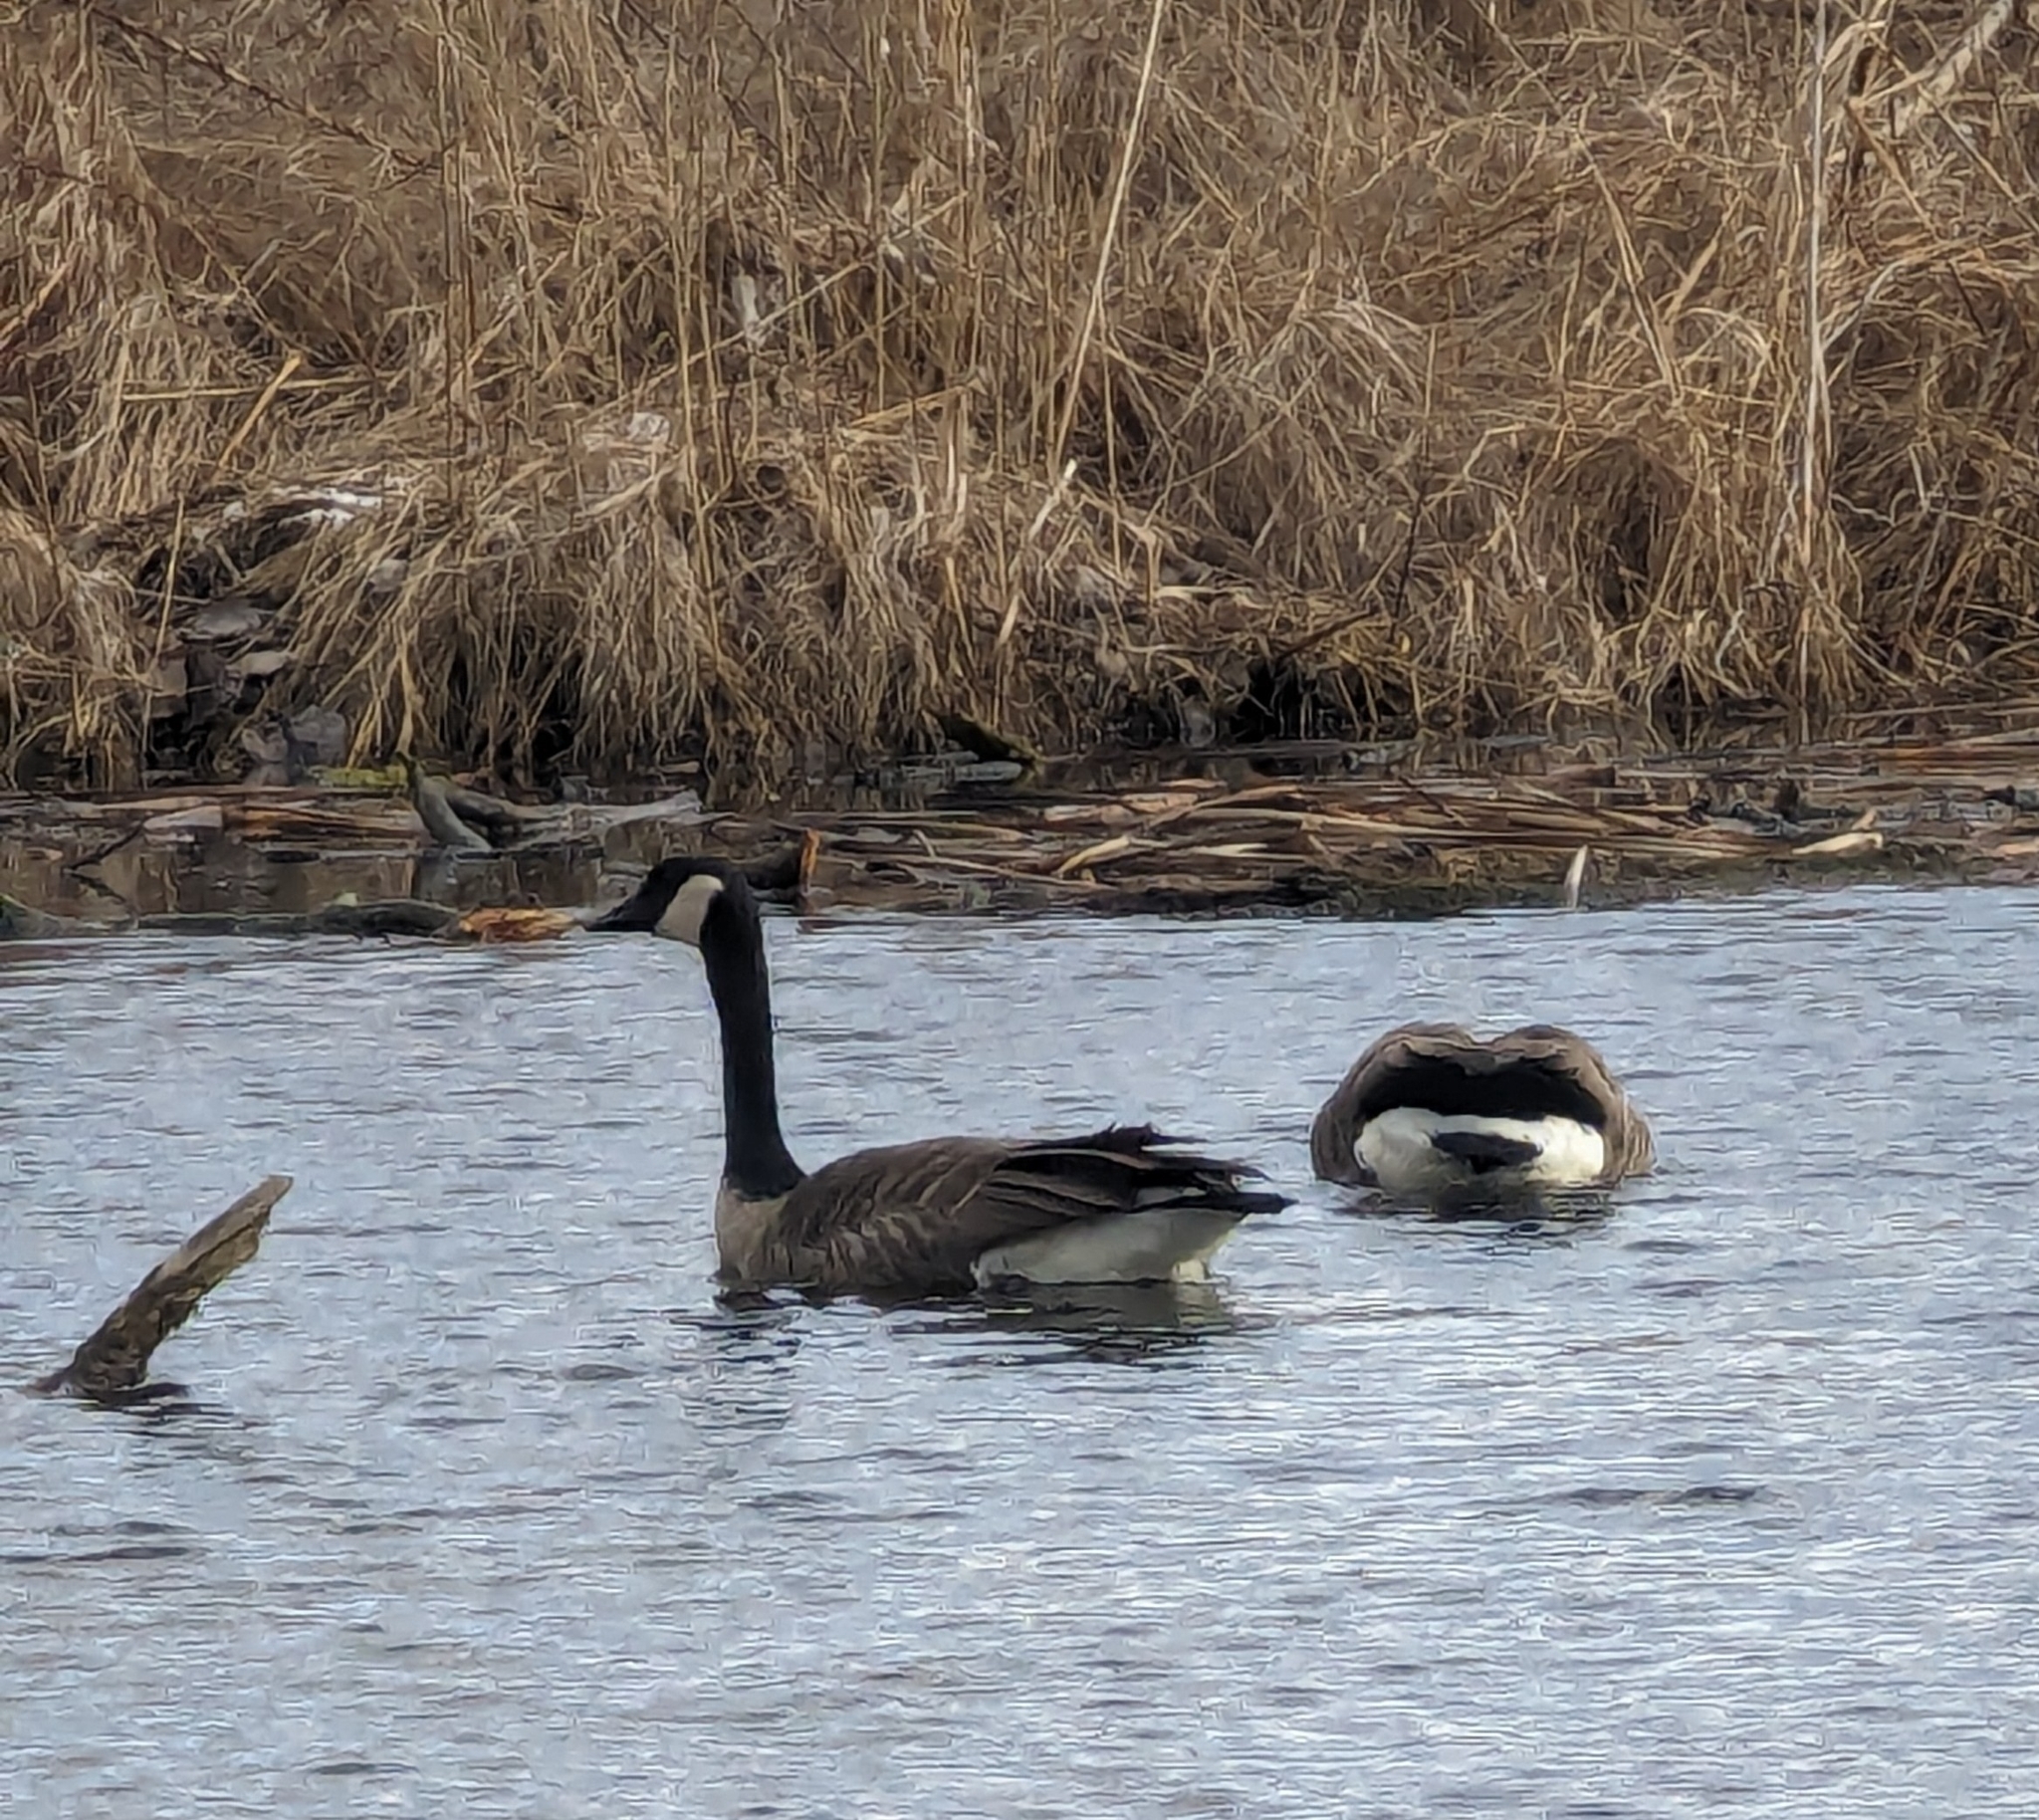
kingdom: Animalia
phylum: Chordata
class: Aves
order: Anseriformes
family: Anatidae
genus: Branta
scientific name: Branta canadensis
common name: Canada goose
